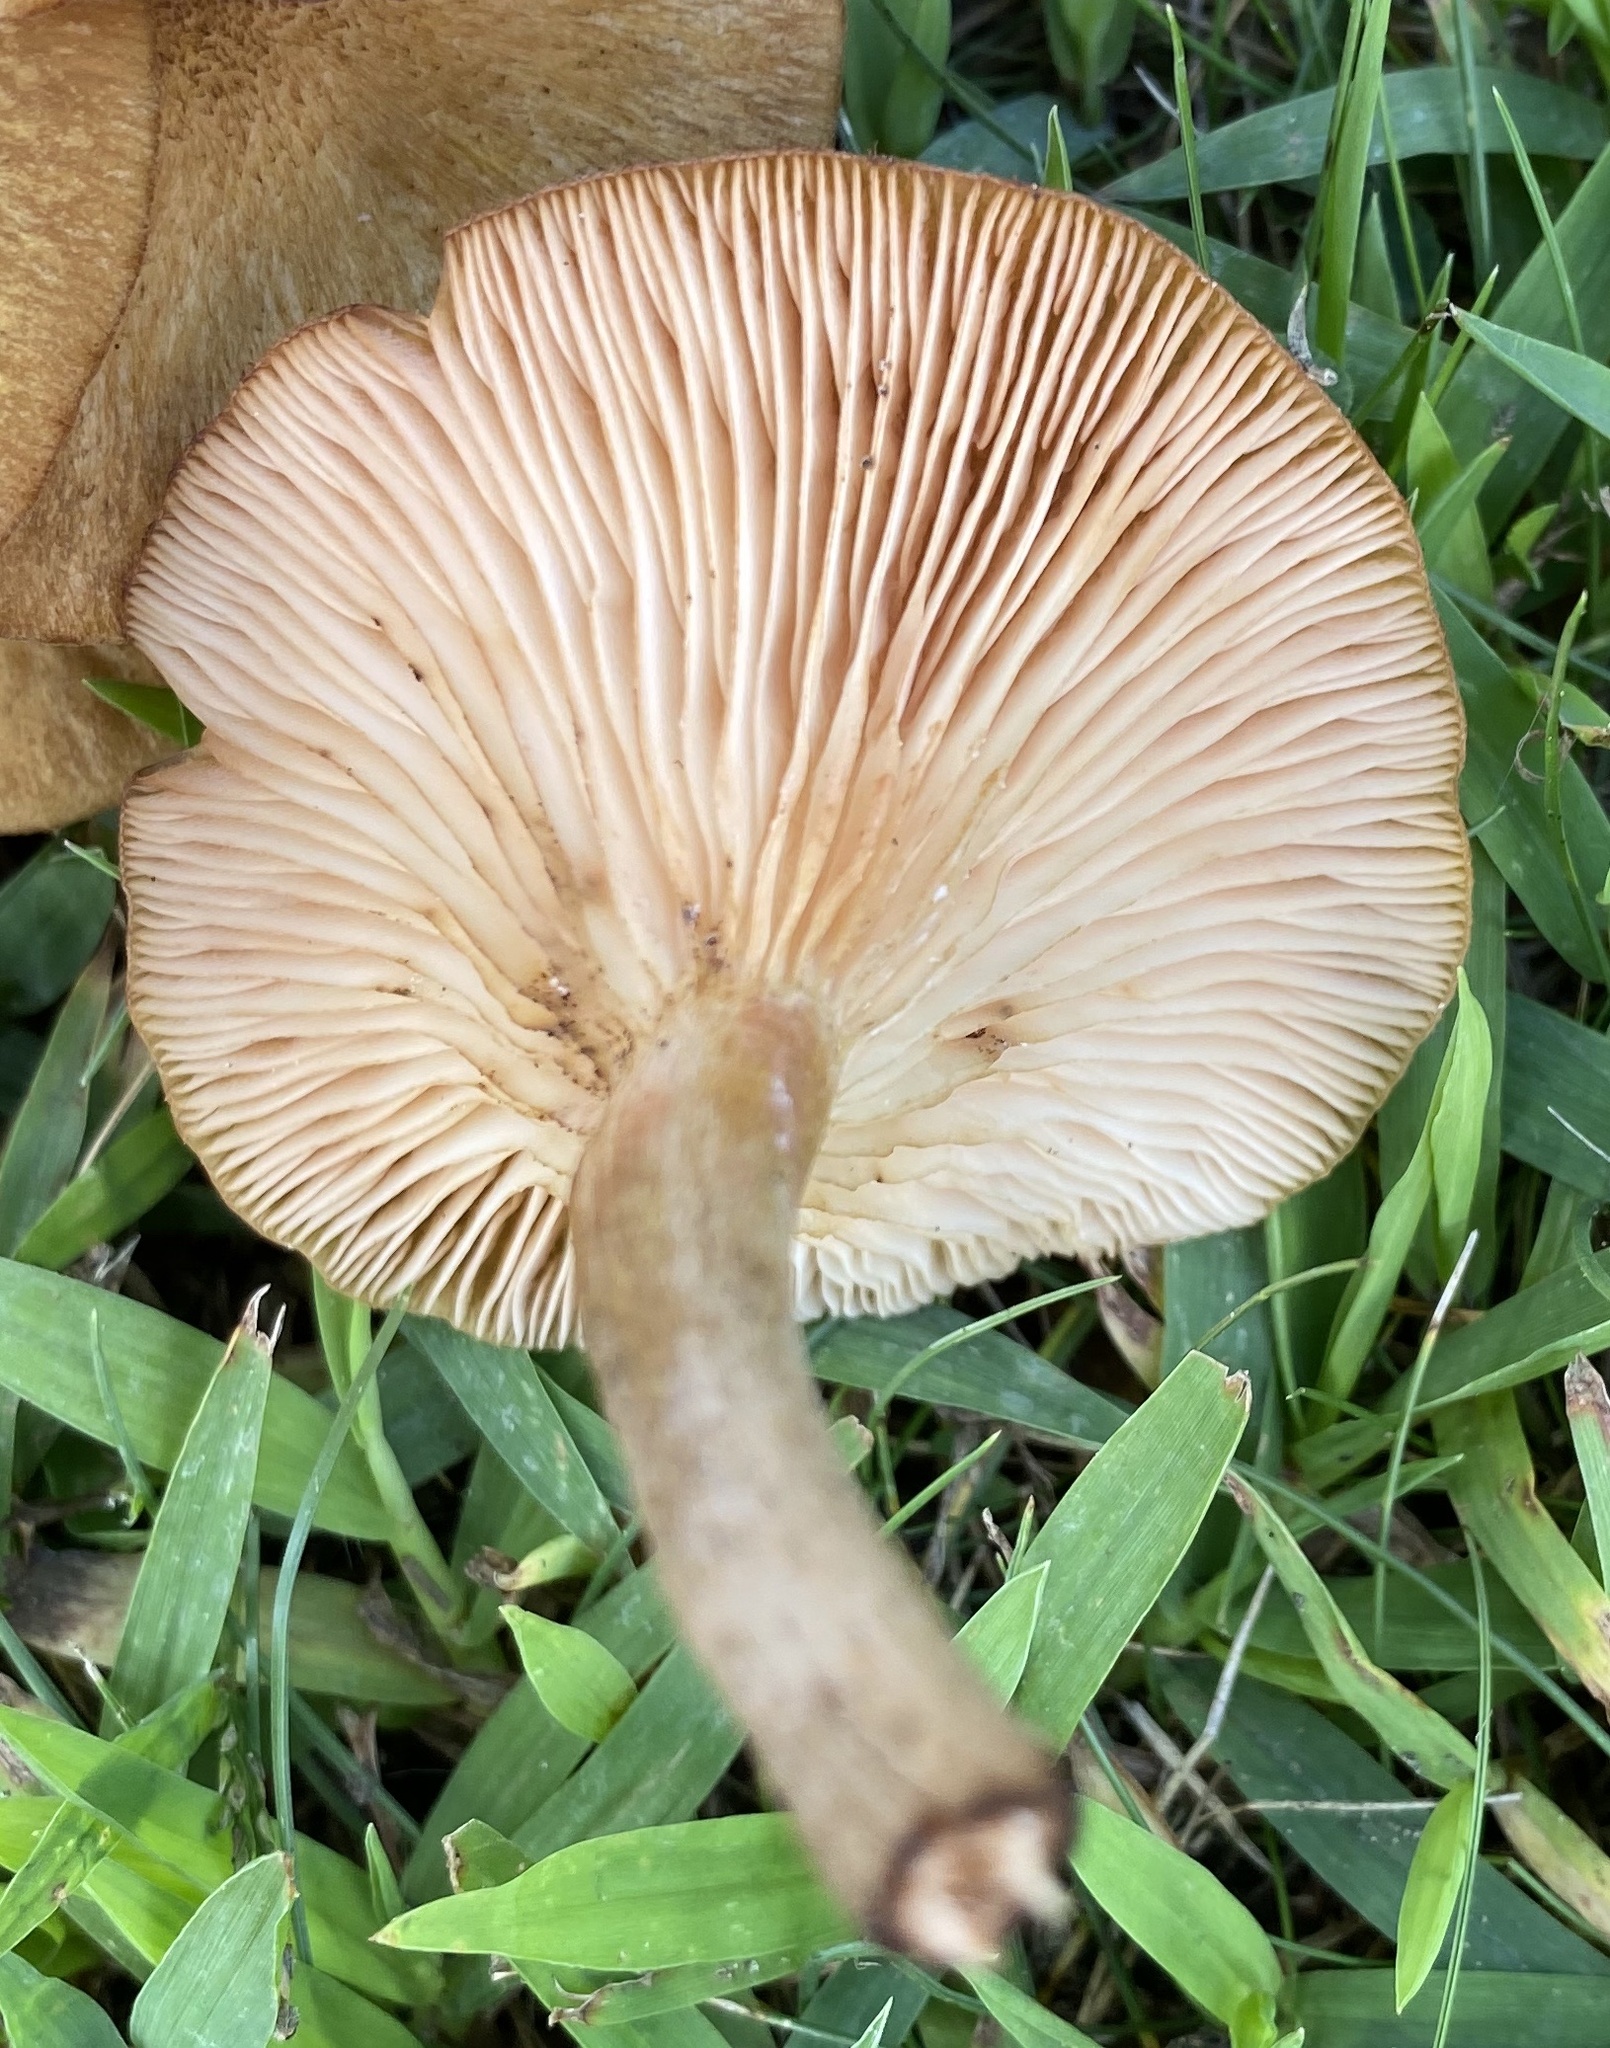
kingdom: Fungi
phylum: Basidiomycota
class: Agaricomycetes
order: Agaricales
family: Physalacriaceae
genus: Desarmillaria
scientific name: Desarmillaria caespitosa
